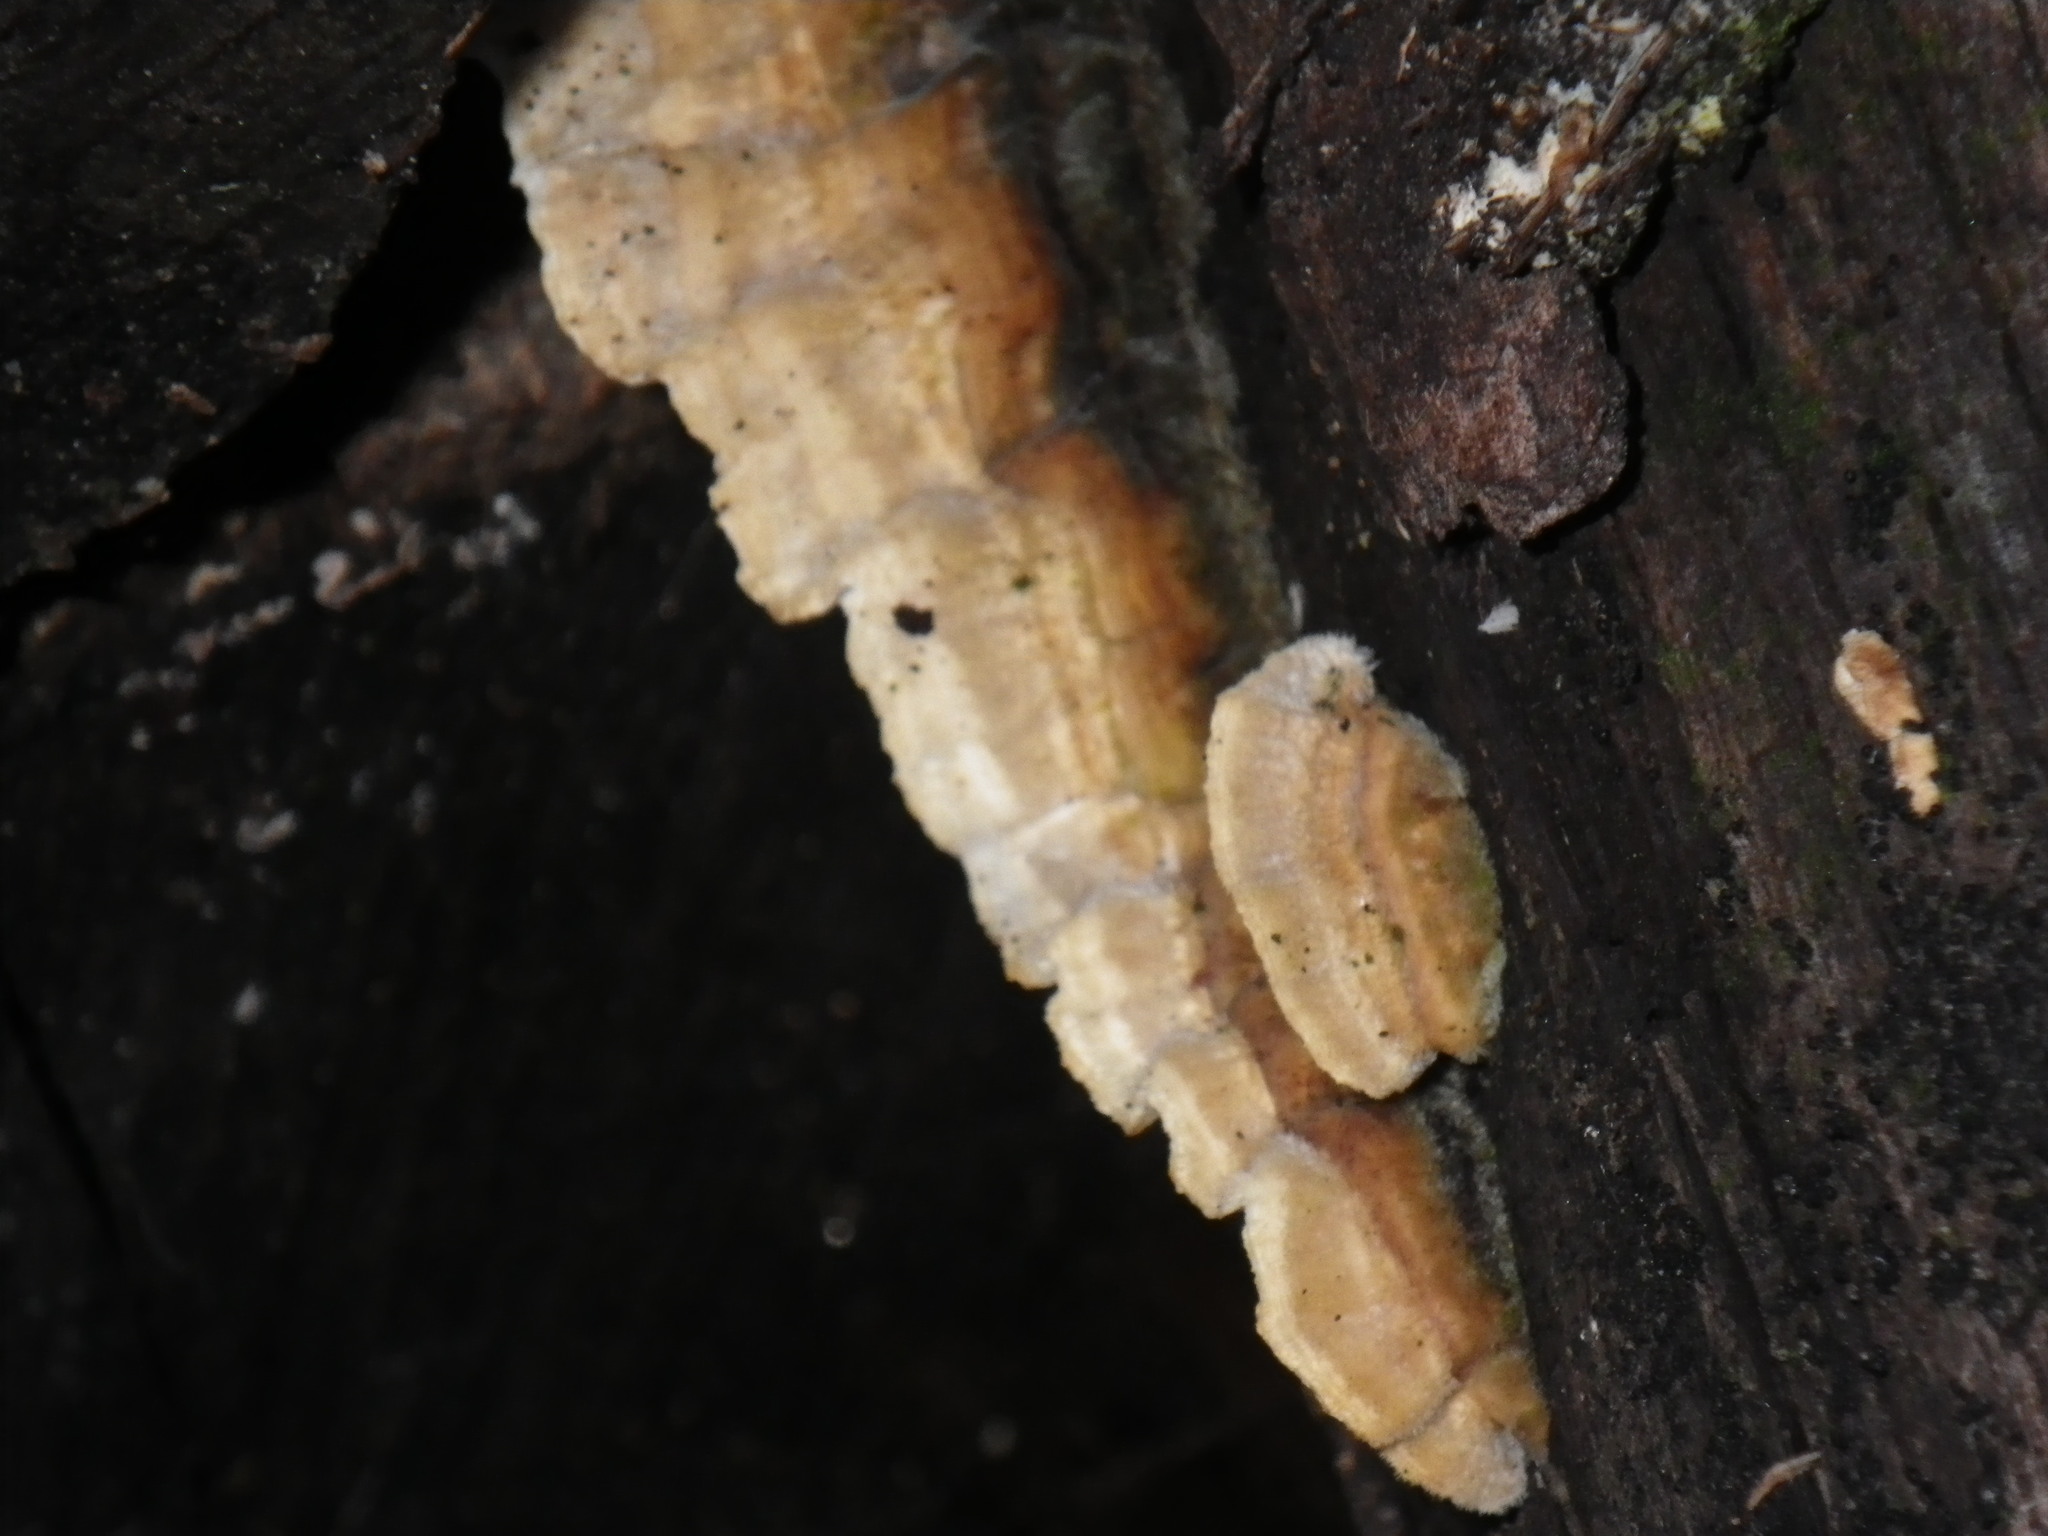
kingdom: Fungi
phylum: Basidiomycota
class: Agaricomycetes
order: Russulales
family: Stereaceae
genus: Stereum
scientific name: Stereum hirsutum
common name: Hairy curtain crust
